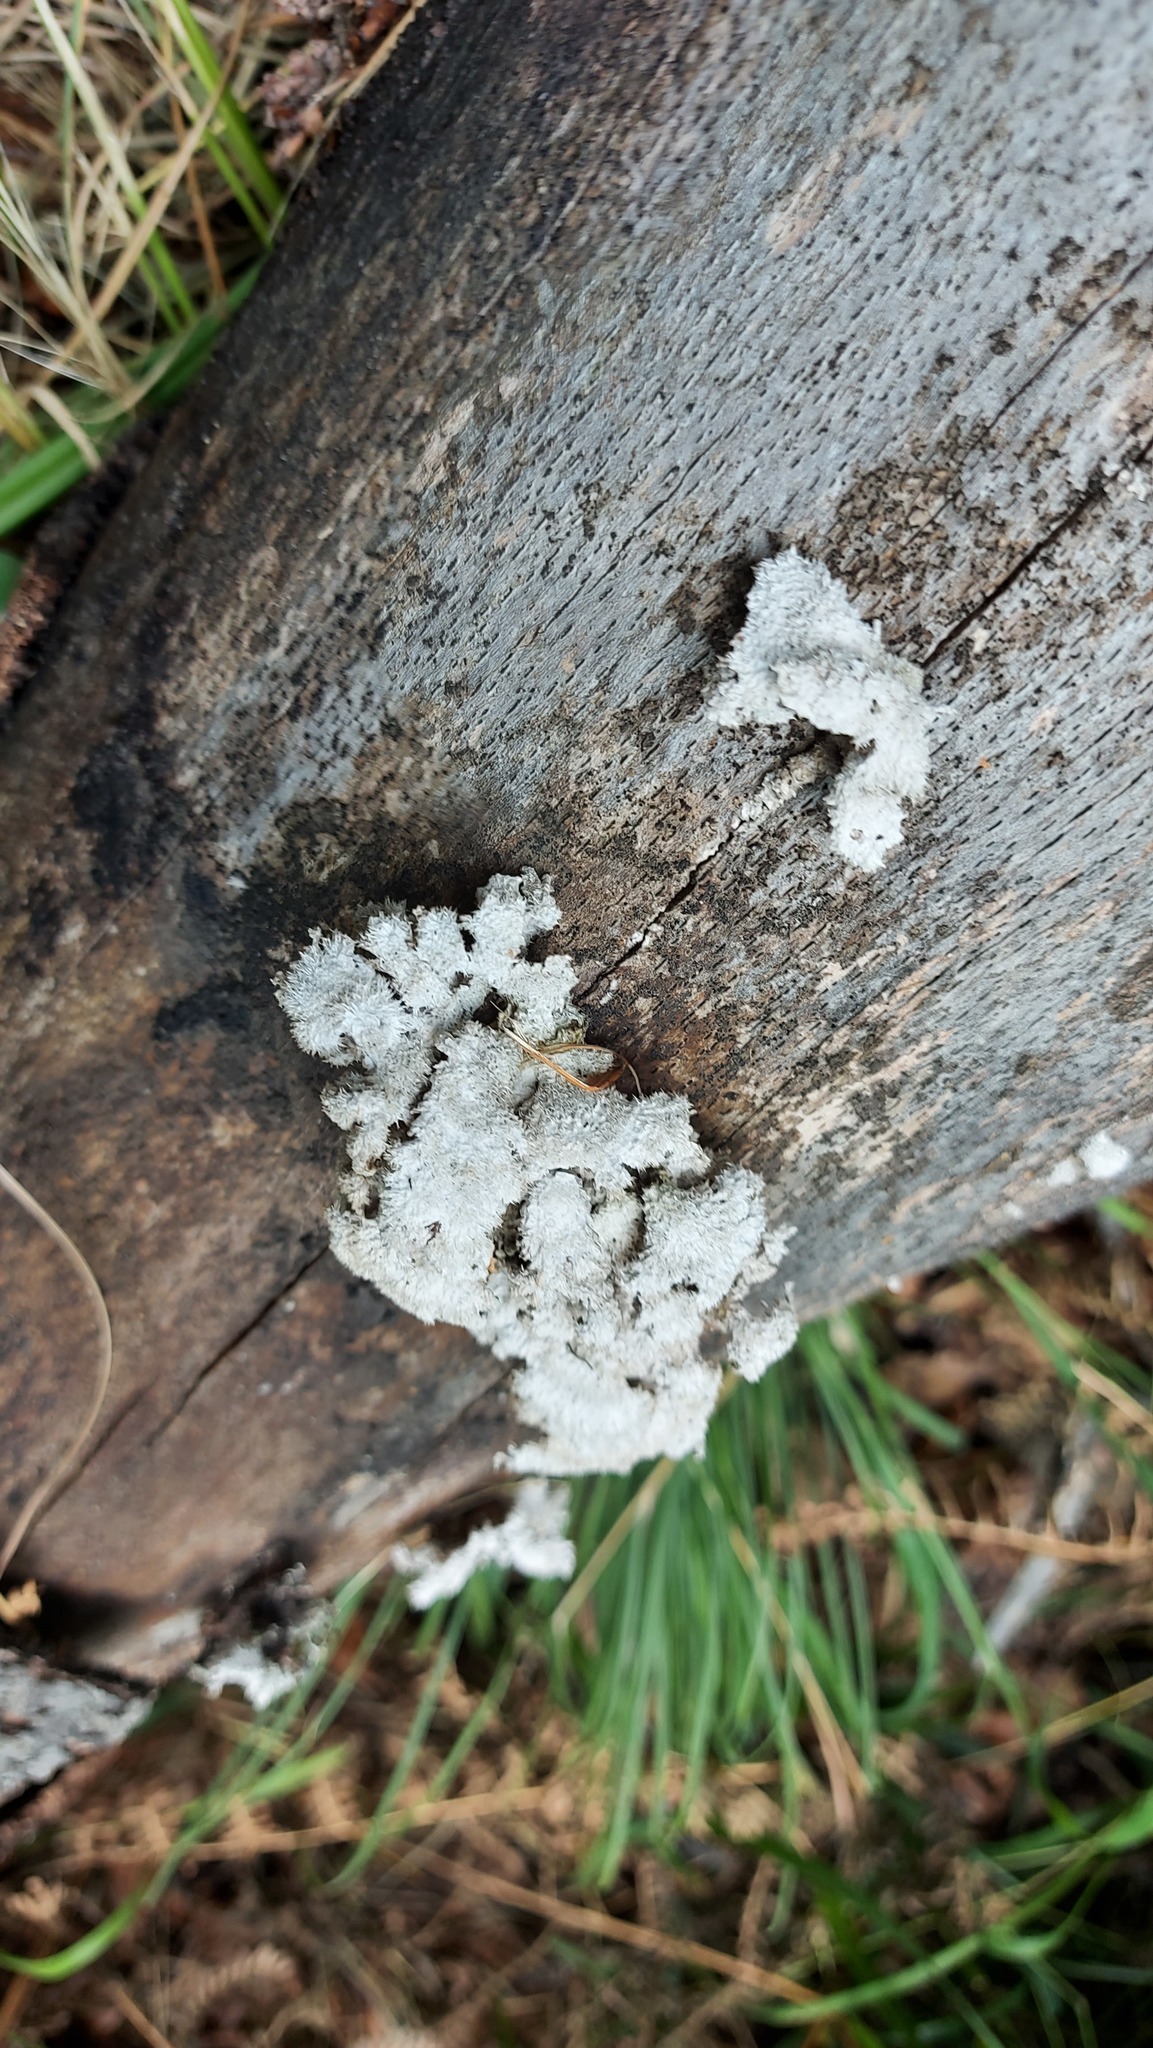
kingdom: Fungi
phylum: Basidiomycota
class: Agaricomycetes
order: Agaricales
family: Schizophyllaceae
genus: Schizophyllum
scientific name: Schizophyllum commune
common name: Common porecrust
